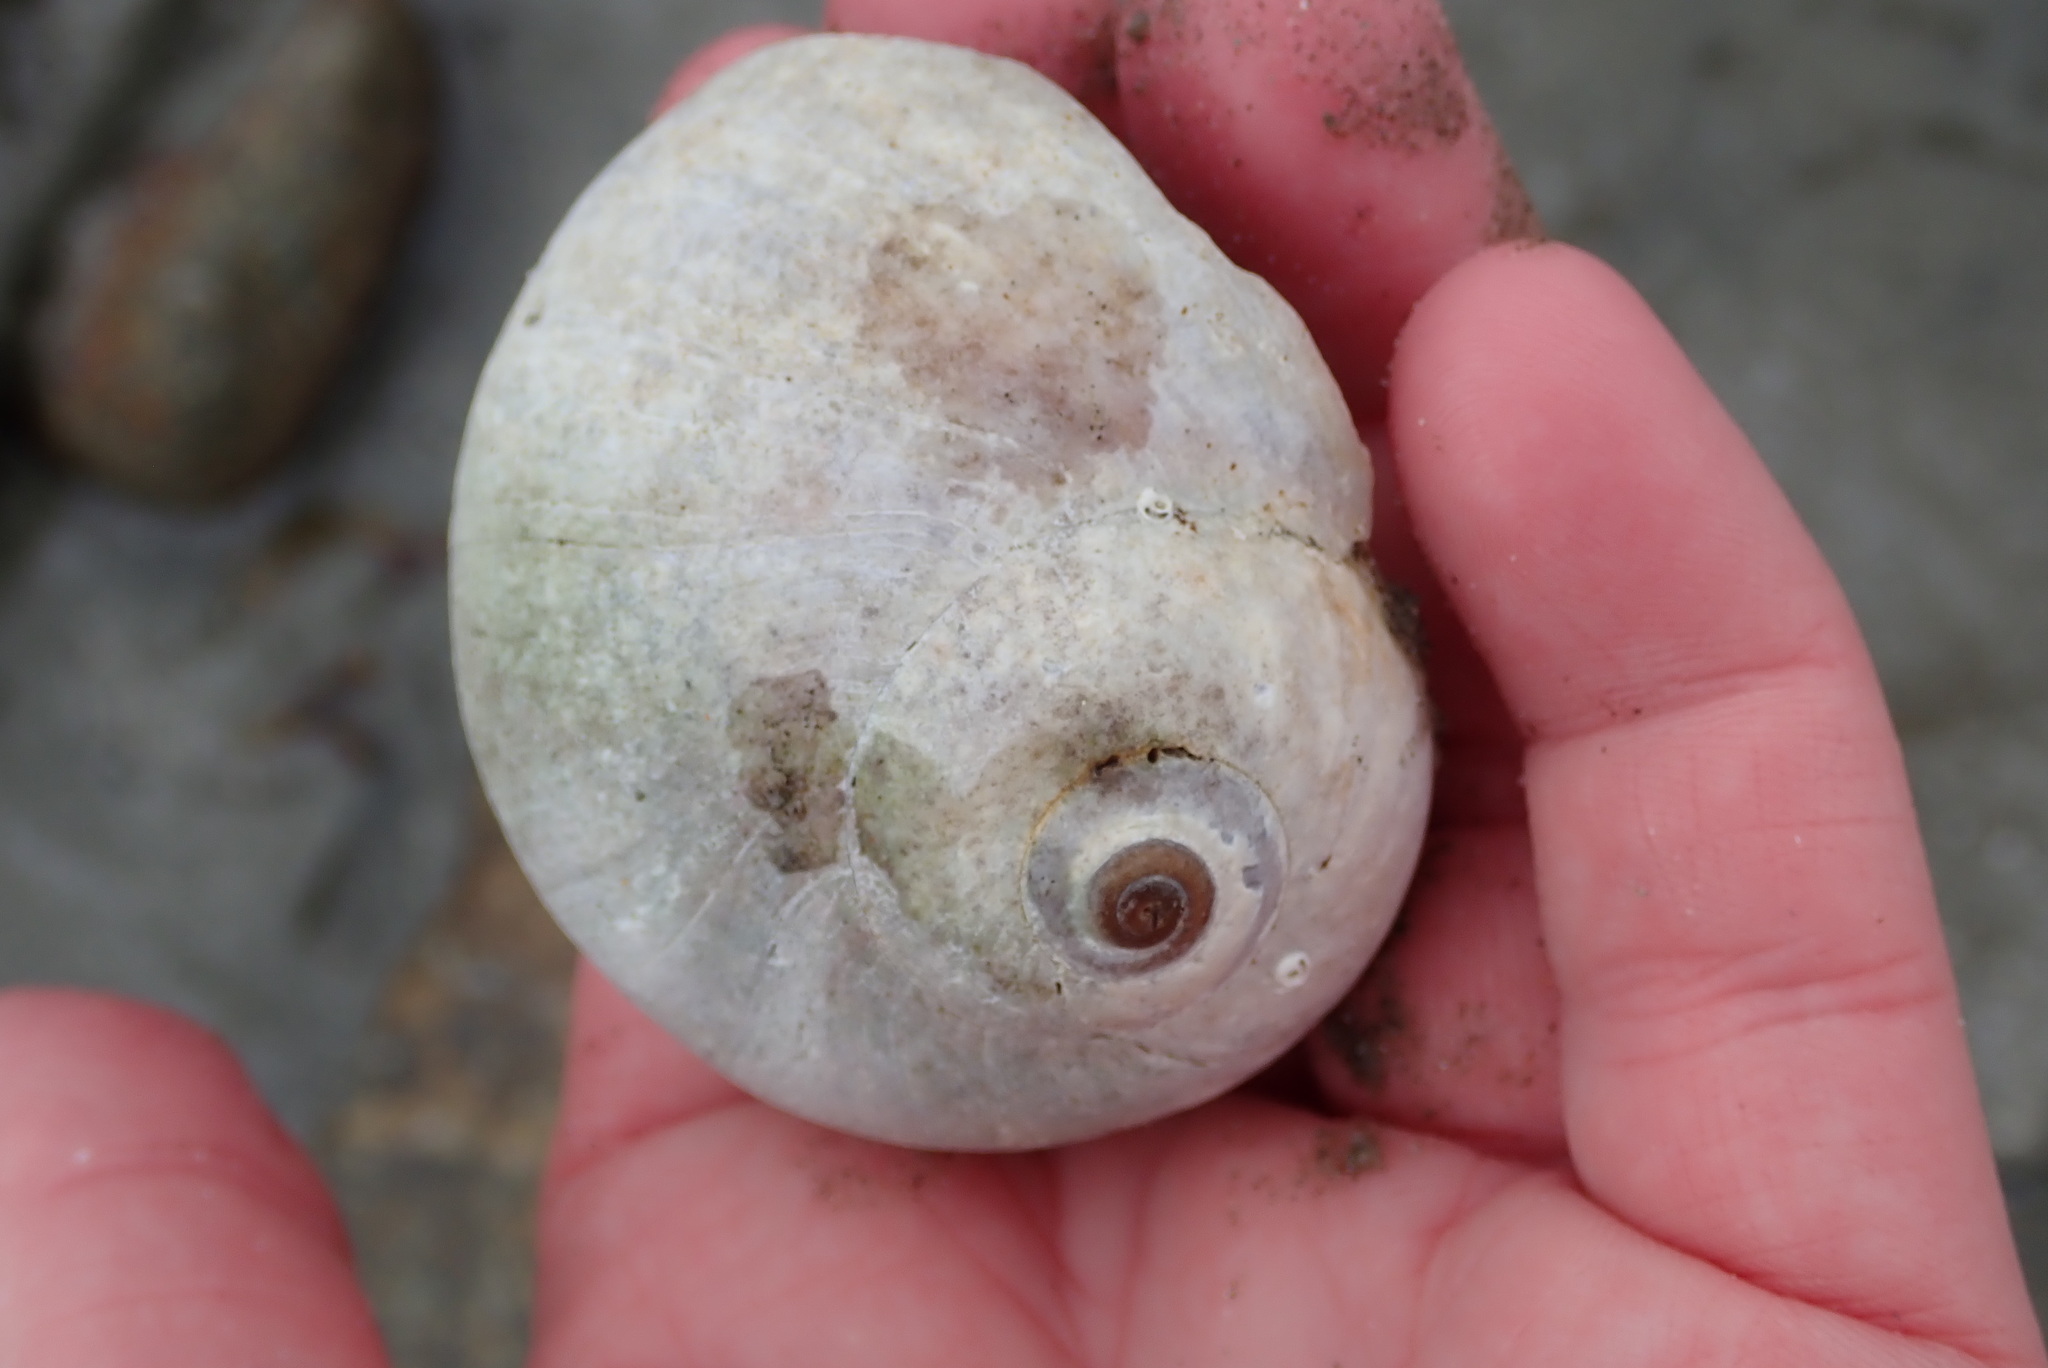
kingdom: Animalia
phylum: Mollusca
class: Gastropoda
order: Littorinimorpha
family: Naticidae
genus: Euspira
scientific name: Euspira heros
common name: Common northern moonsnail
